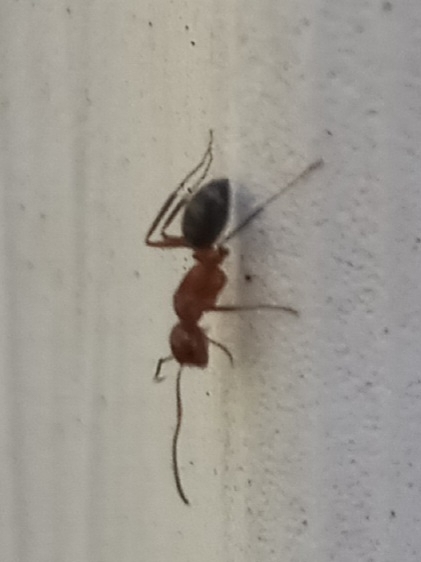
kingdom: Animalia
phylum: Arthropoda
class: Insecta
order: Hymenoptera
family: Formicidae
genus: Camponotus
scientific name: Camponotus decipiens
